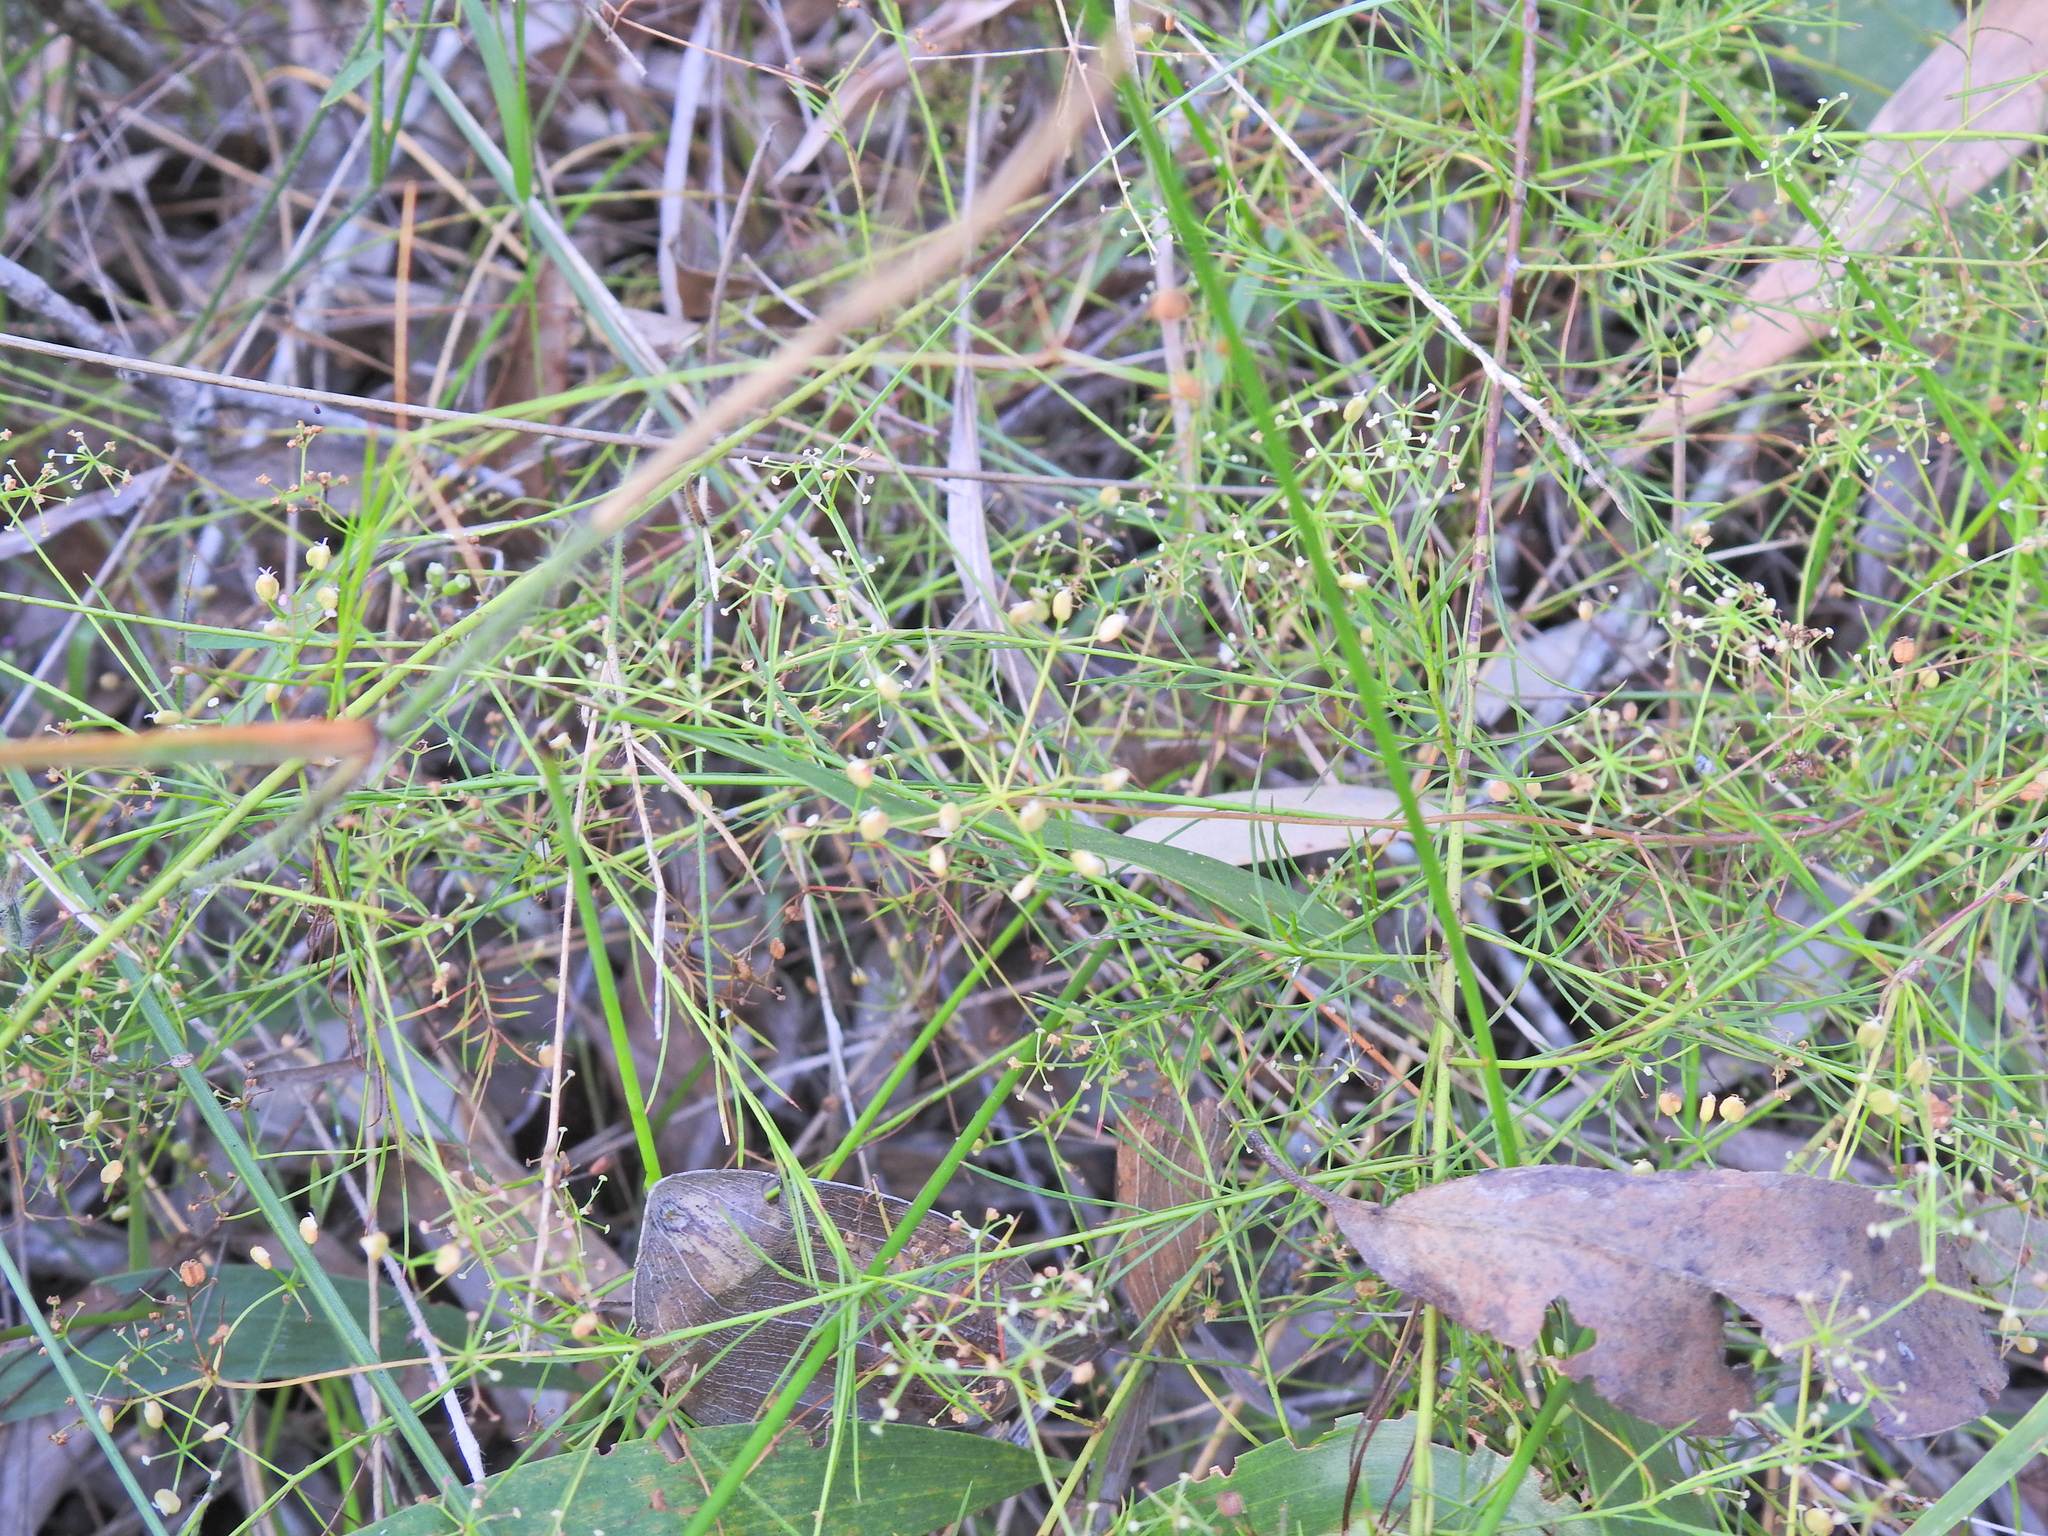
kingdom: Plantae
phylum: Tracheophyta
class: Magnoliopsida
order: Apiales
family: Apiaceae
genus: Platysace
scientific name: Platysace linearifolia
